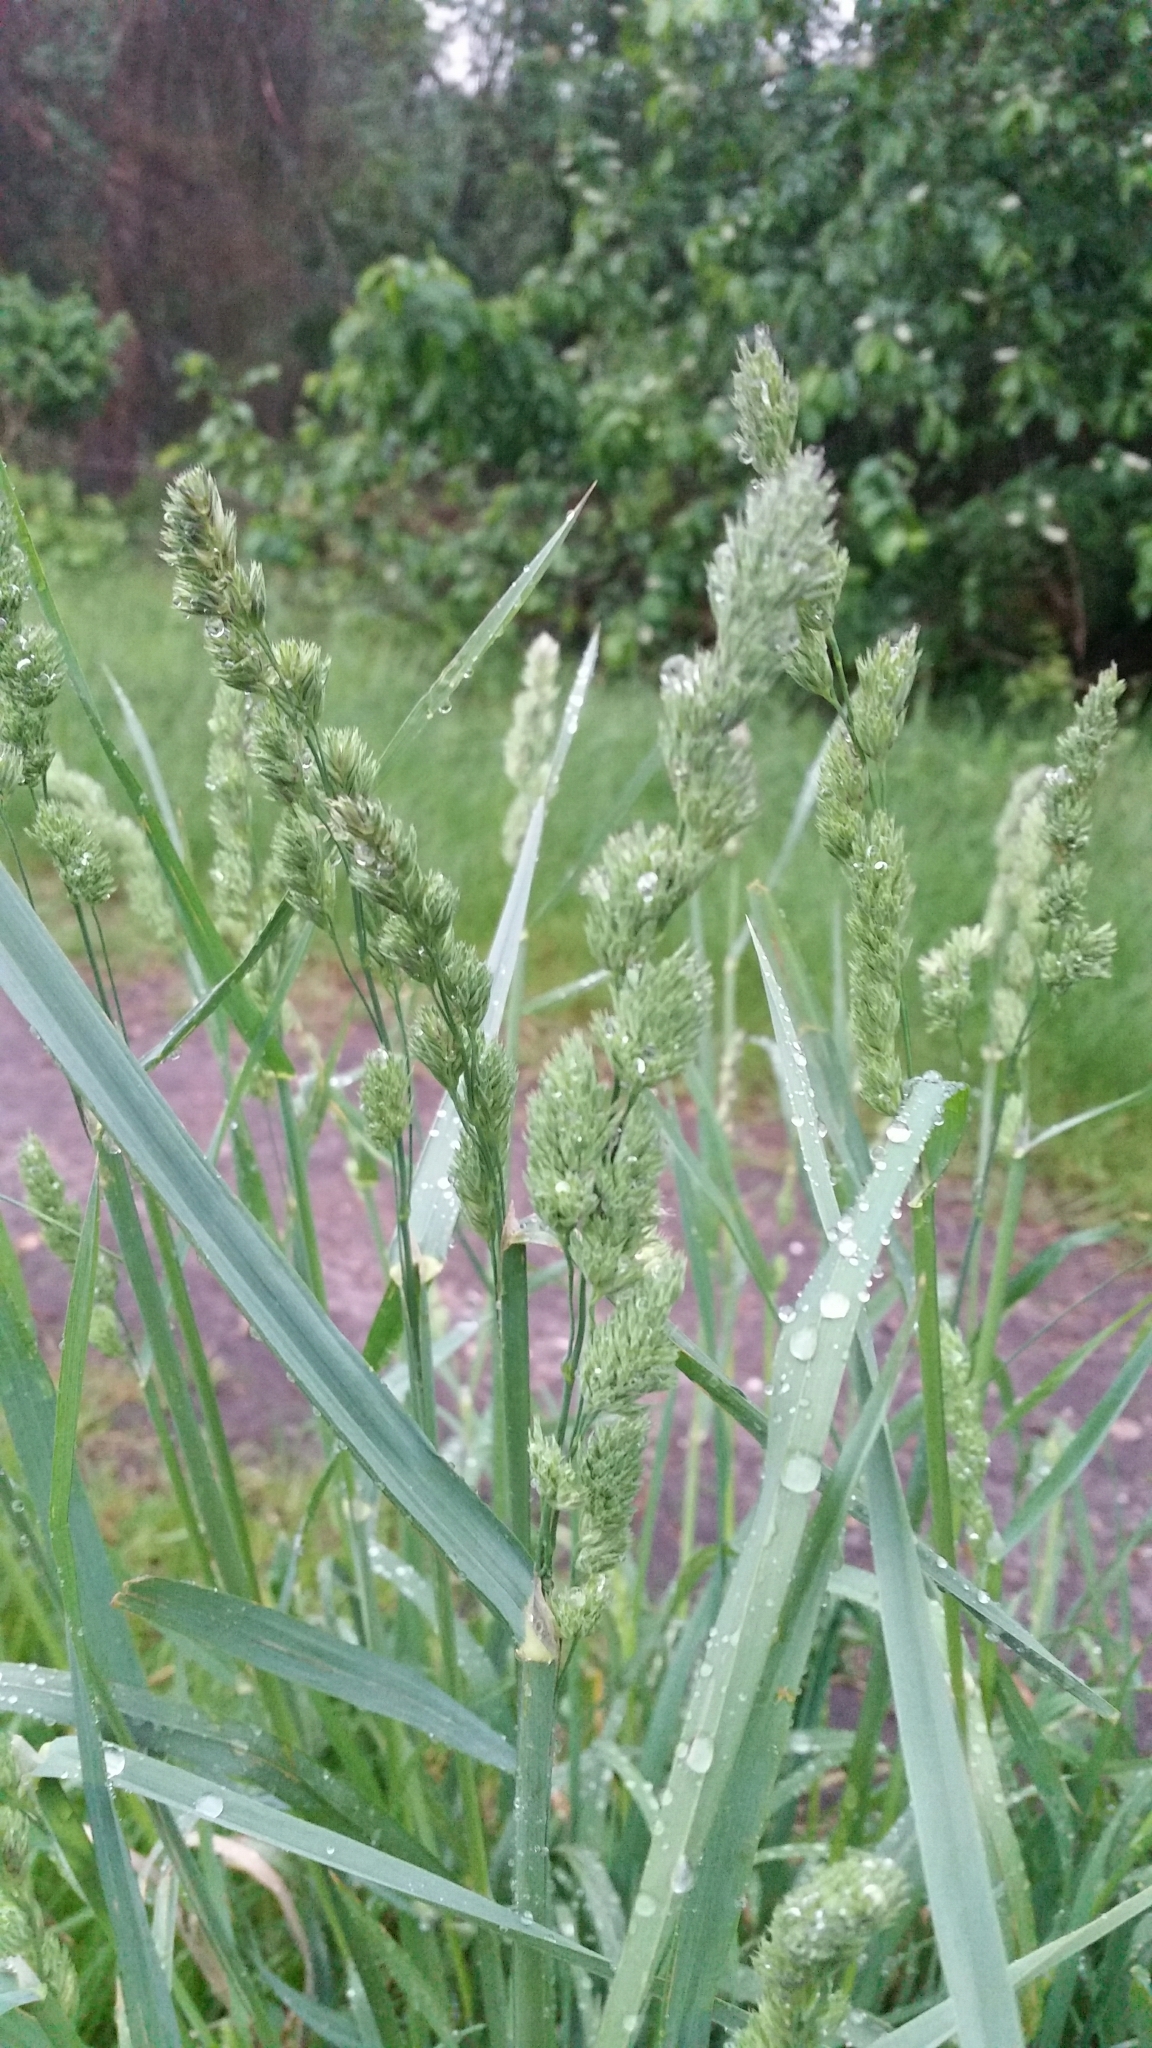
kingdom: Plantae
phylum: Tracheophyta
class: Liliopsida
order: Poales
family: Poaceae
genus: Dactylis
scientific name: Dactylis glomerata
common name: Orchardgrass
